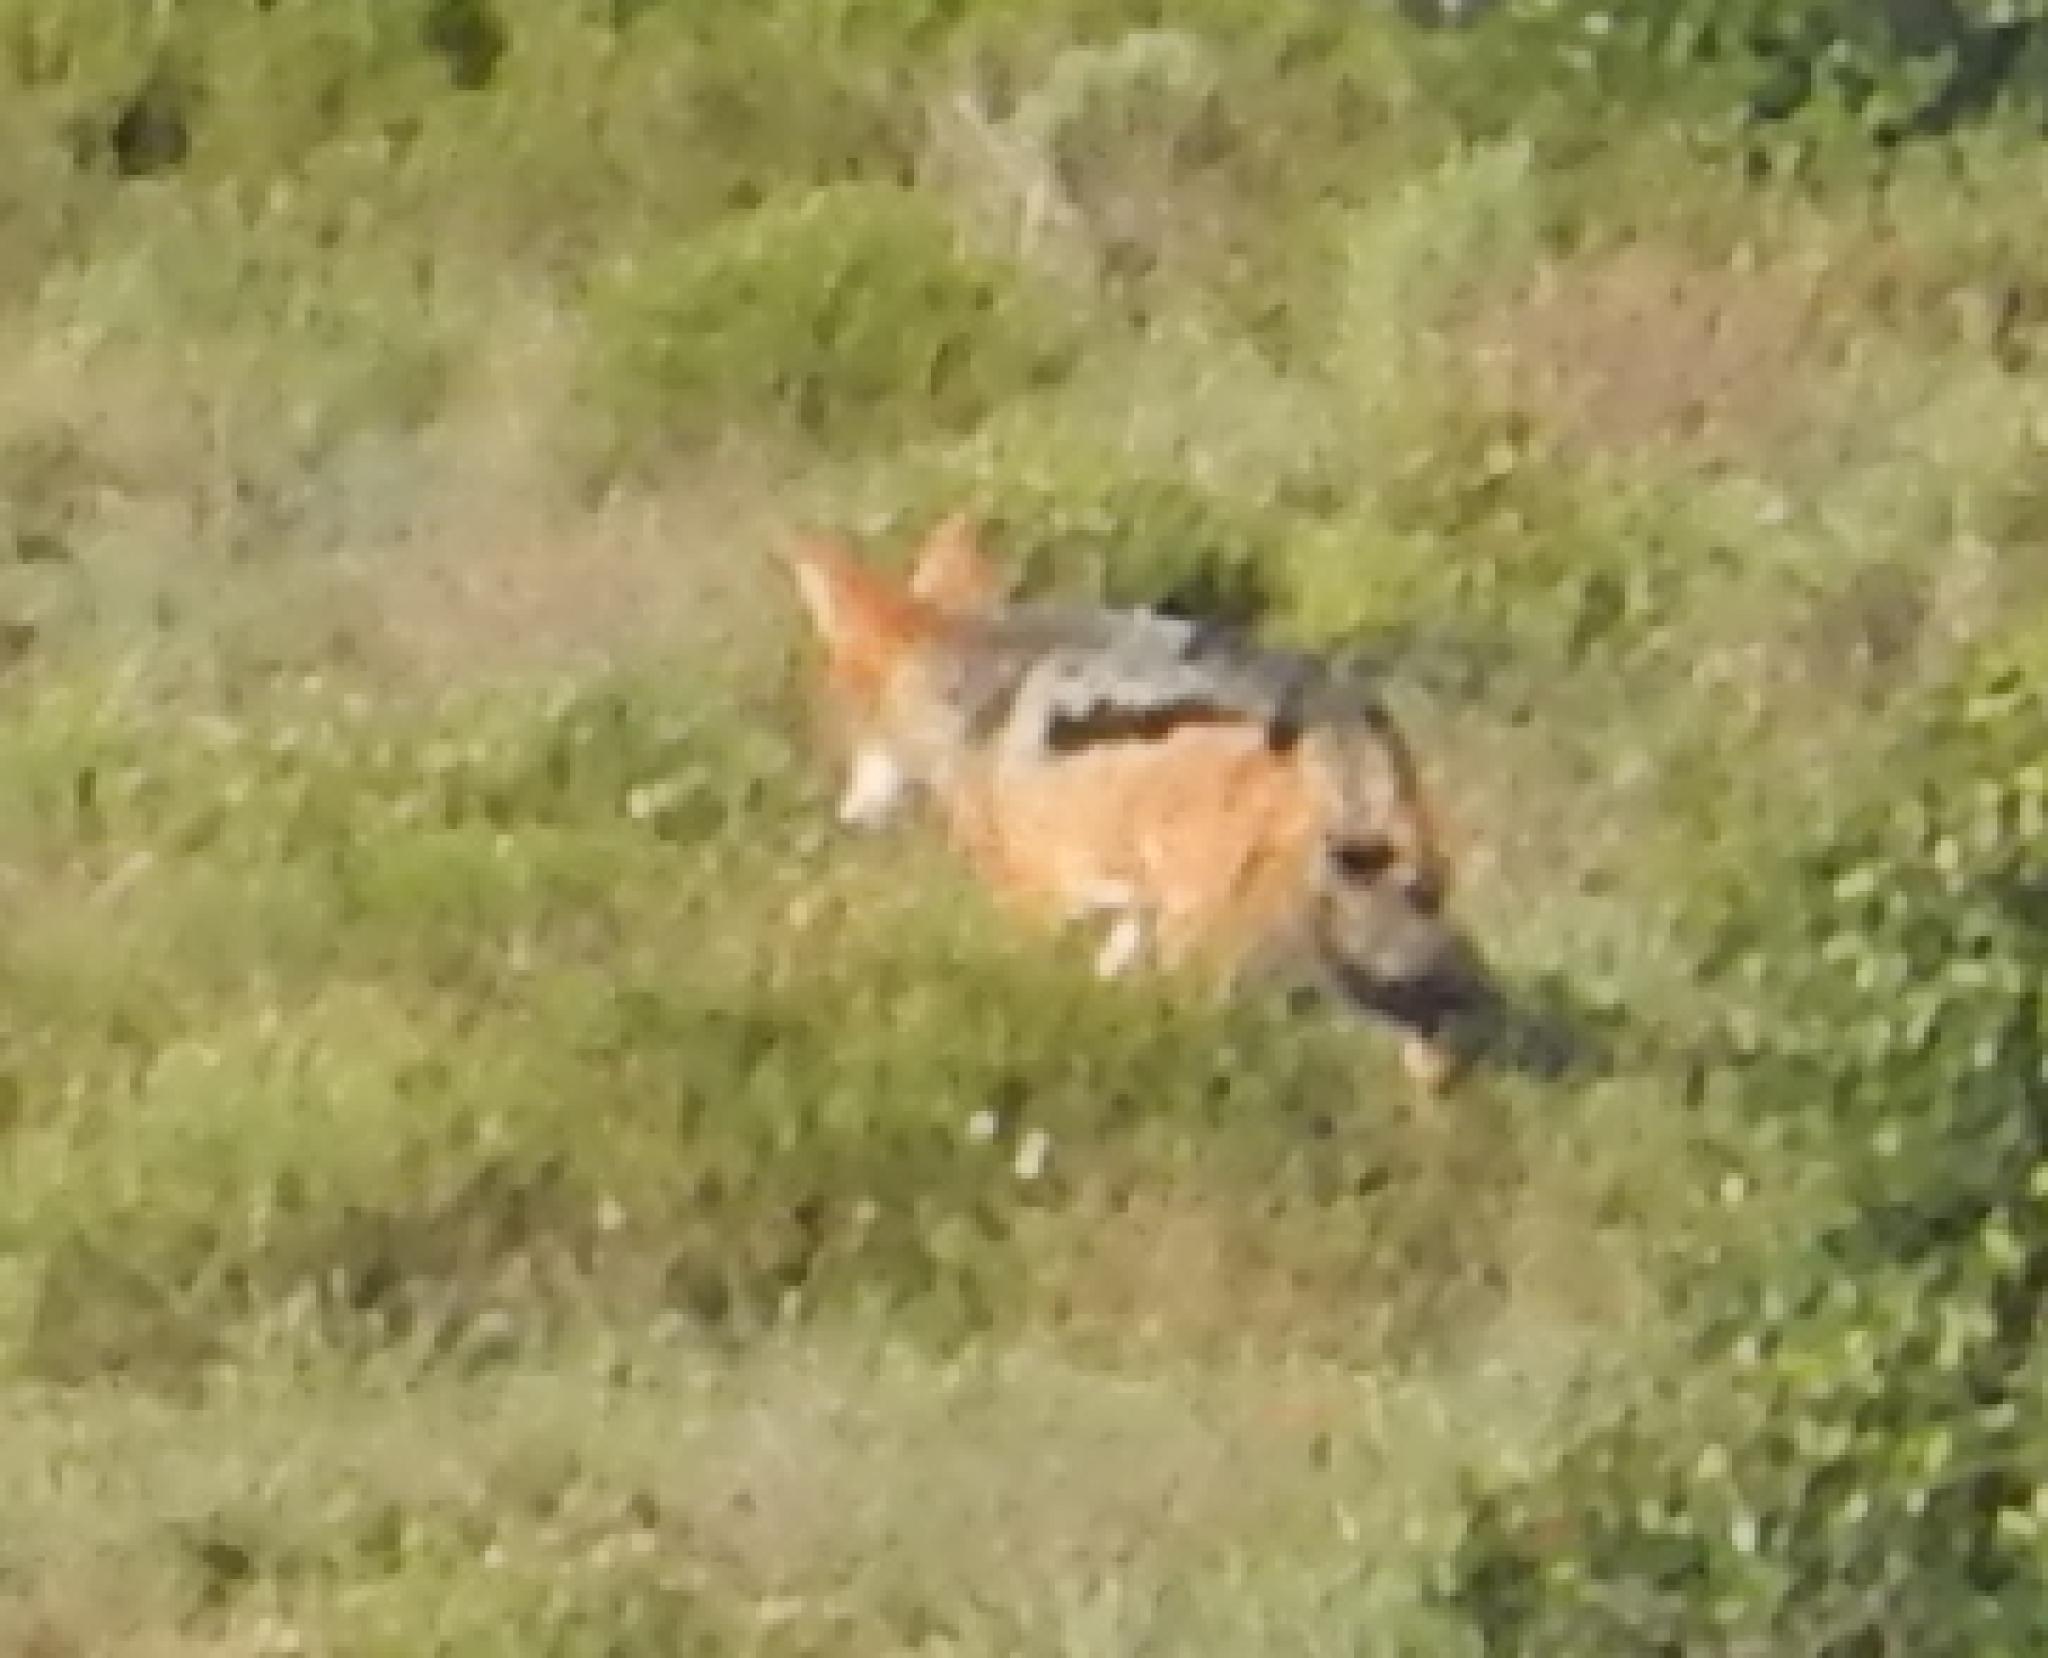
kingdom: Animalia
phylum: Chordata
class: Mammalia
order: Carnivora
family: Canidae
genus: Lupulella
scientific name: Lupulella
